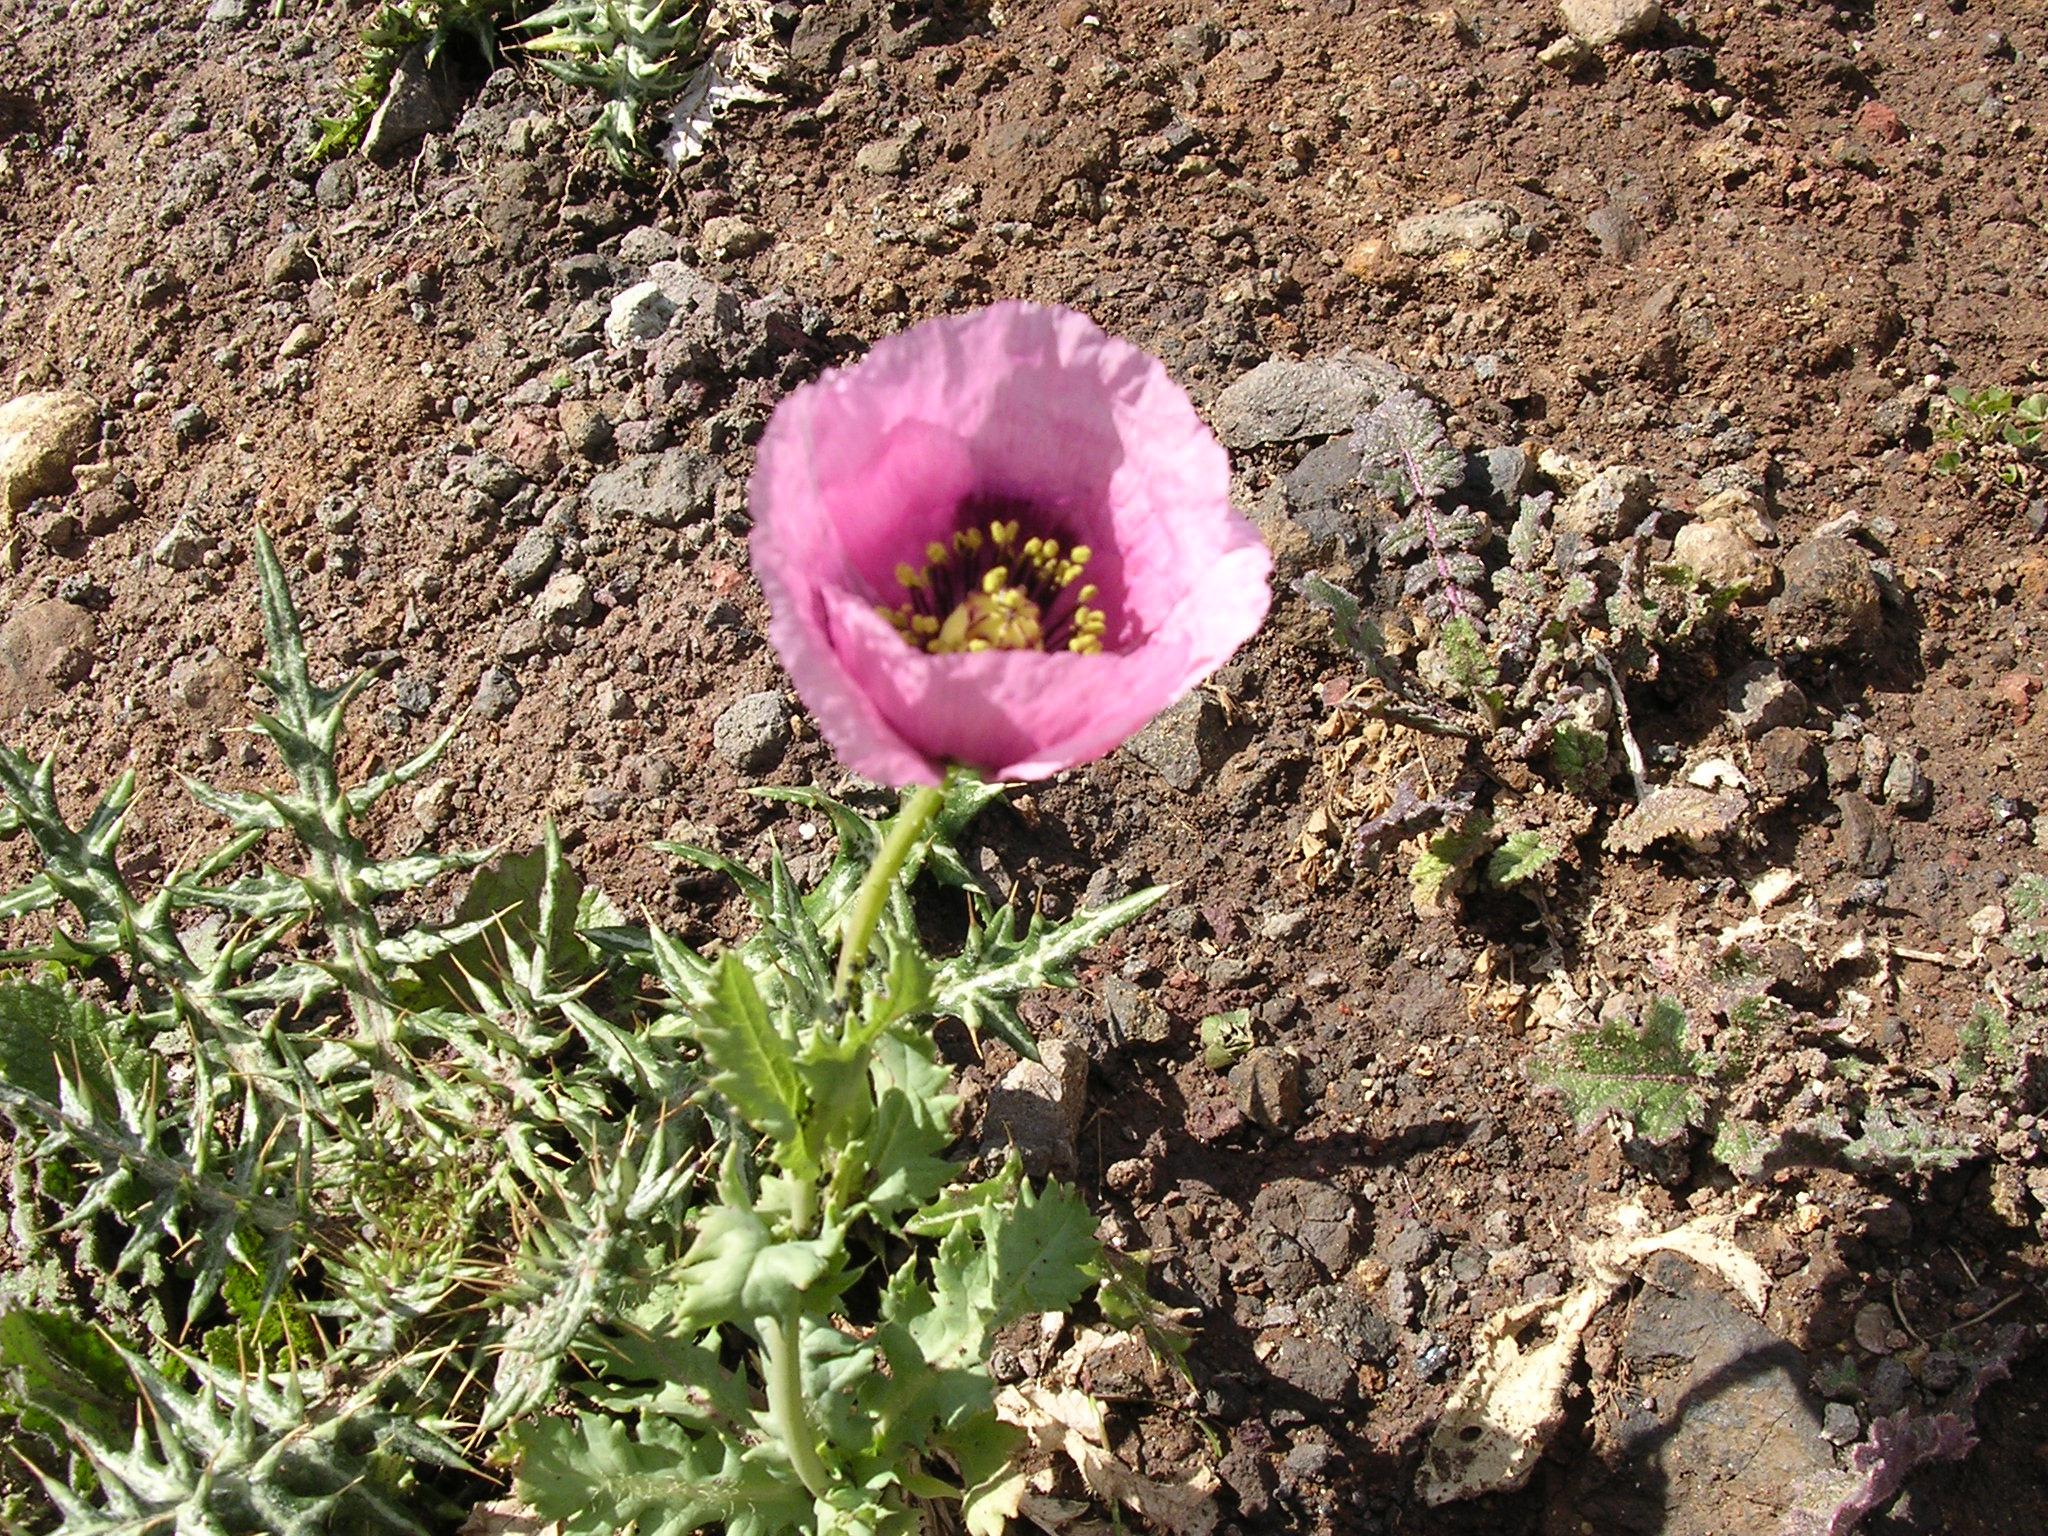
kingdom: Plantae
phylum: Tracheophyta
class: Magnoliopsida
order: Ranunculales
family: Papaveraceae
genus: Papaver
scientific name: Papaver setigerum
